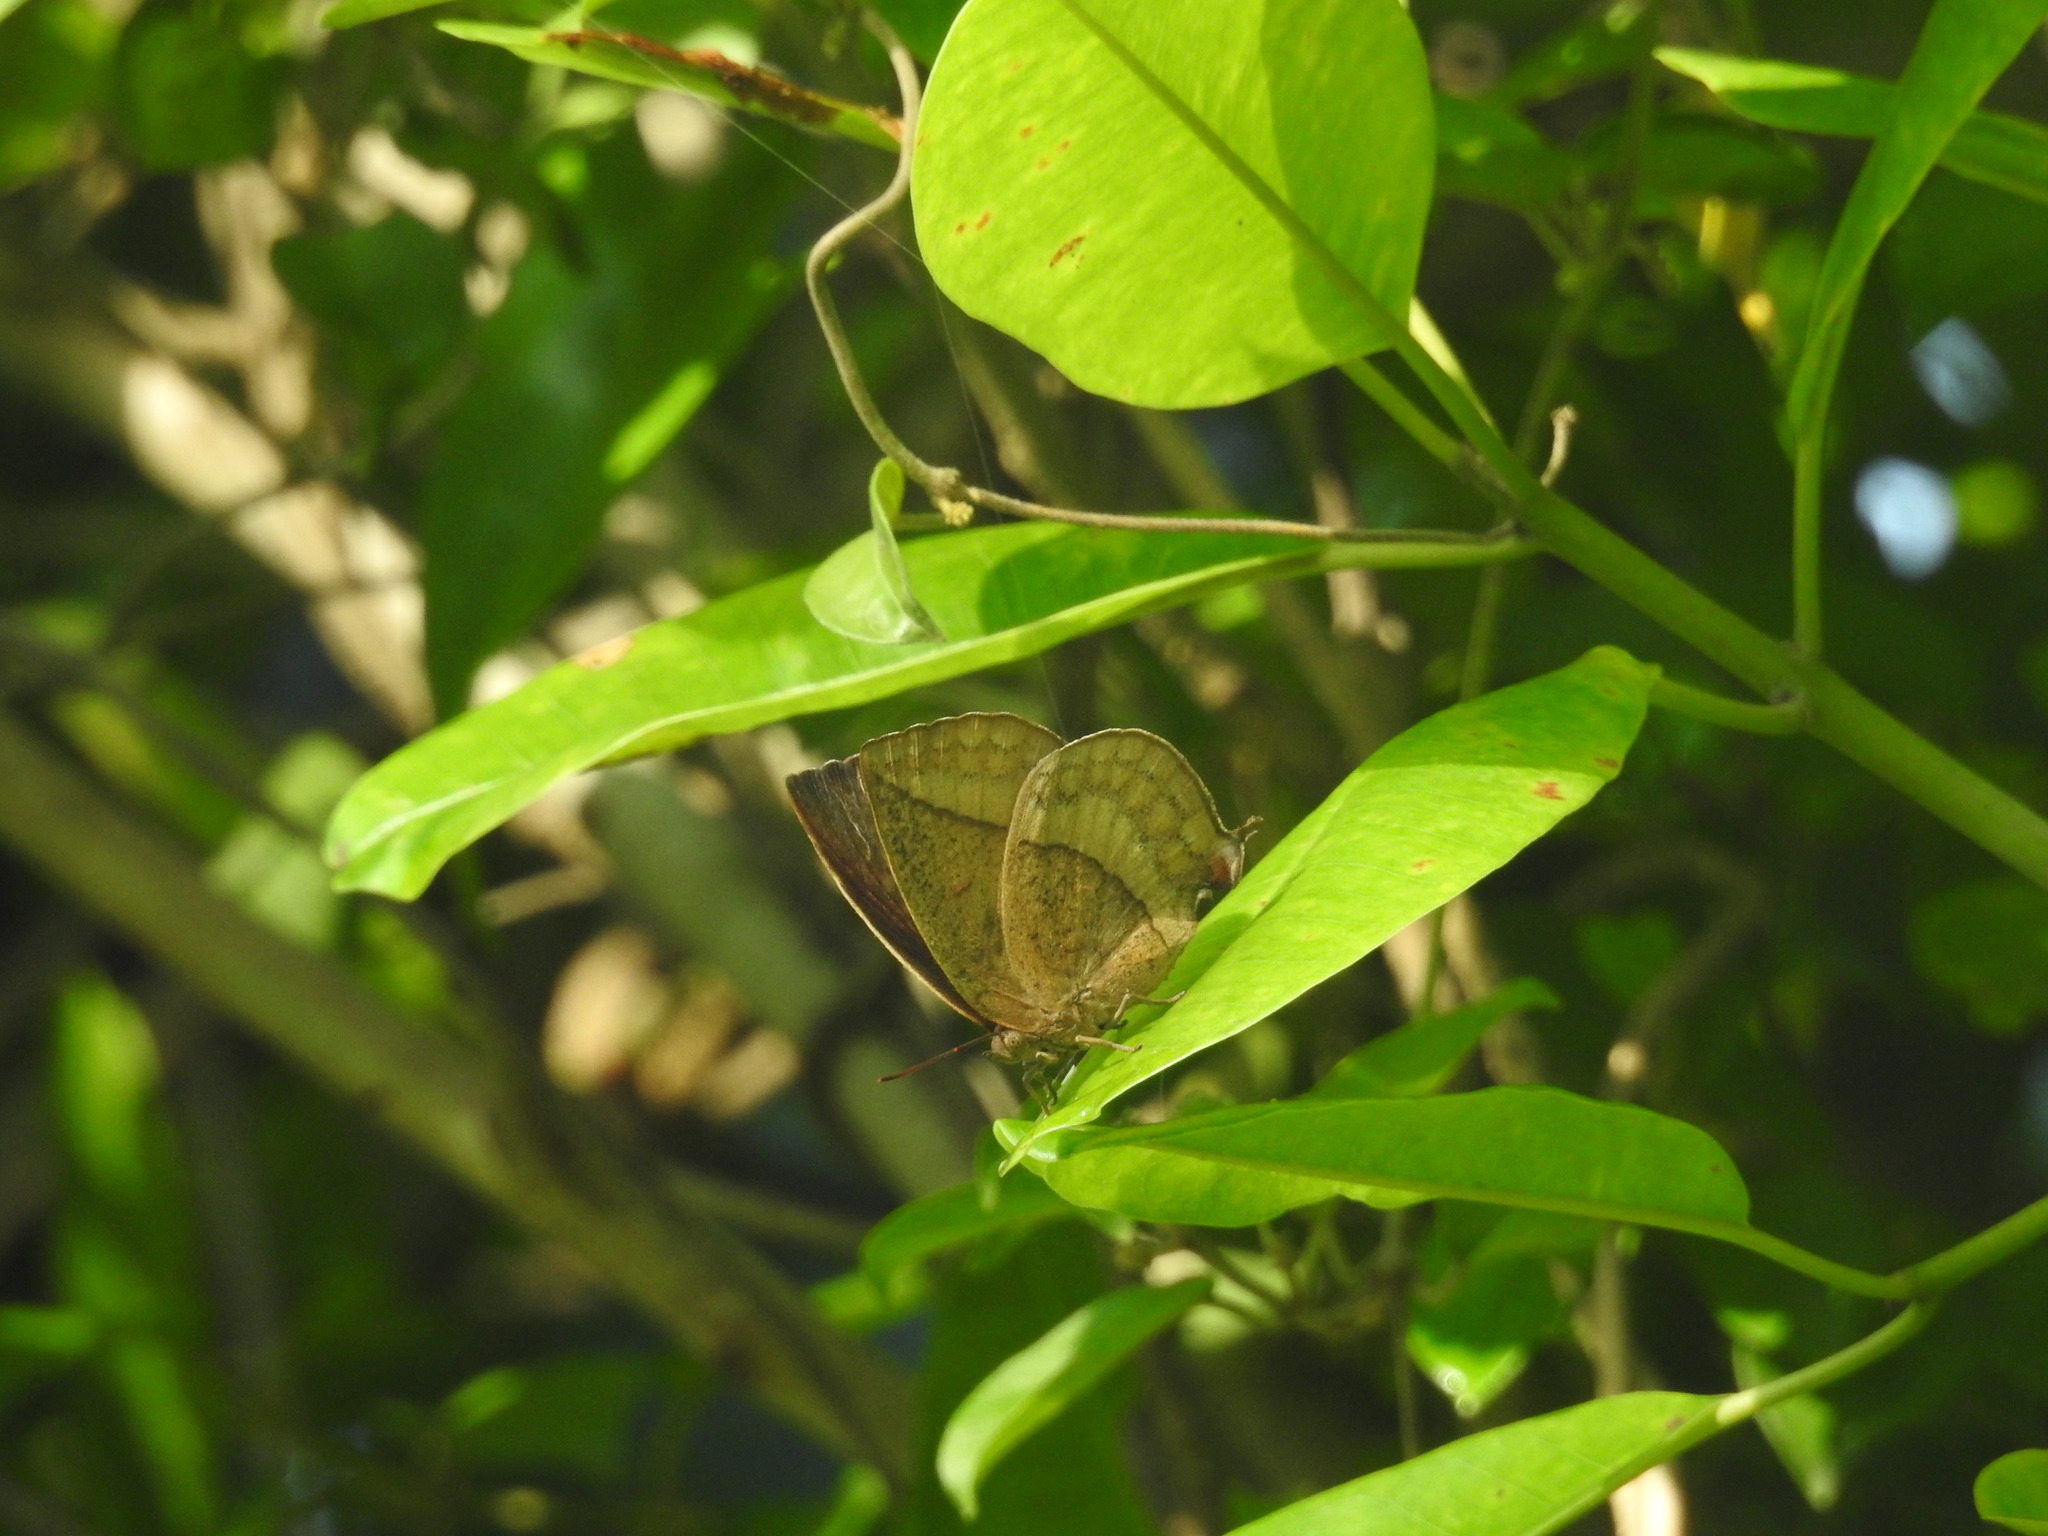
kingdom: Animalia
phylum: Arthropoda
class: Insecta
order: Lepidoptera
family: Lycaenidae
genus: Amblypodia
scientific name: Amblypodia anita
